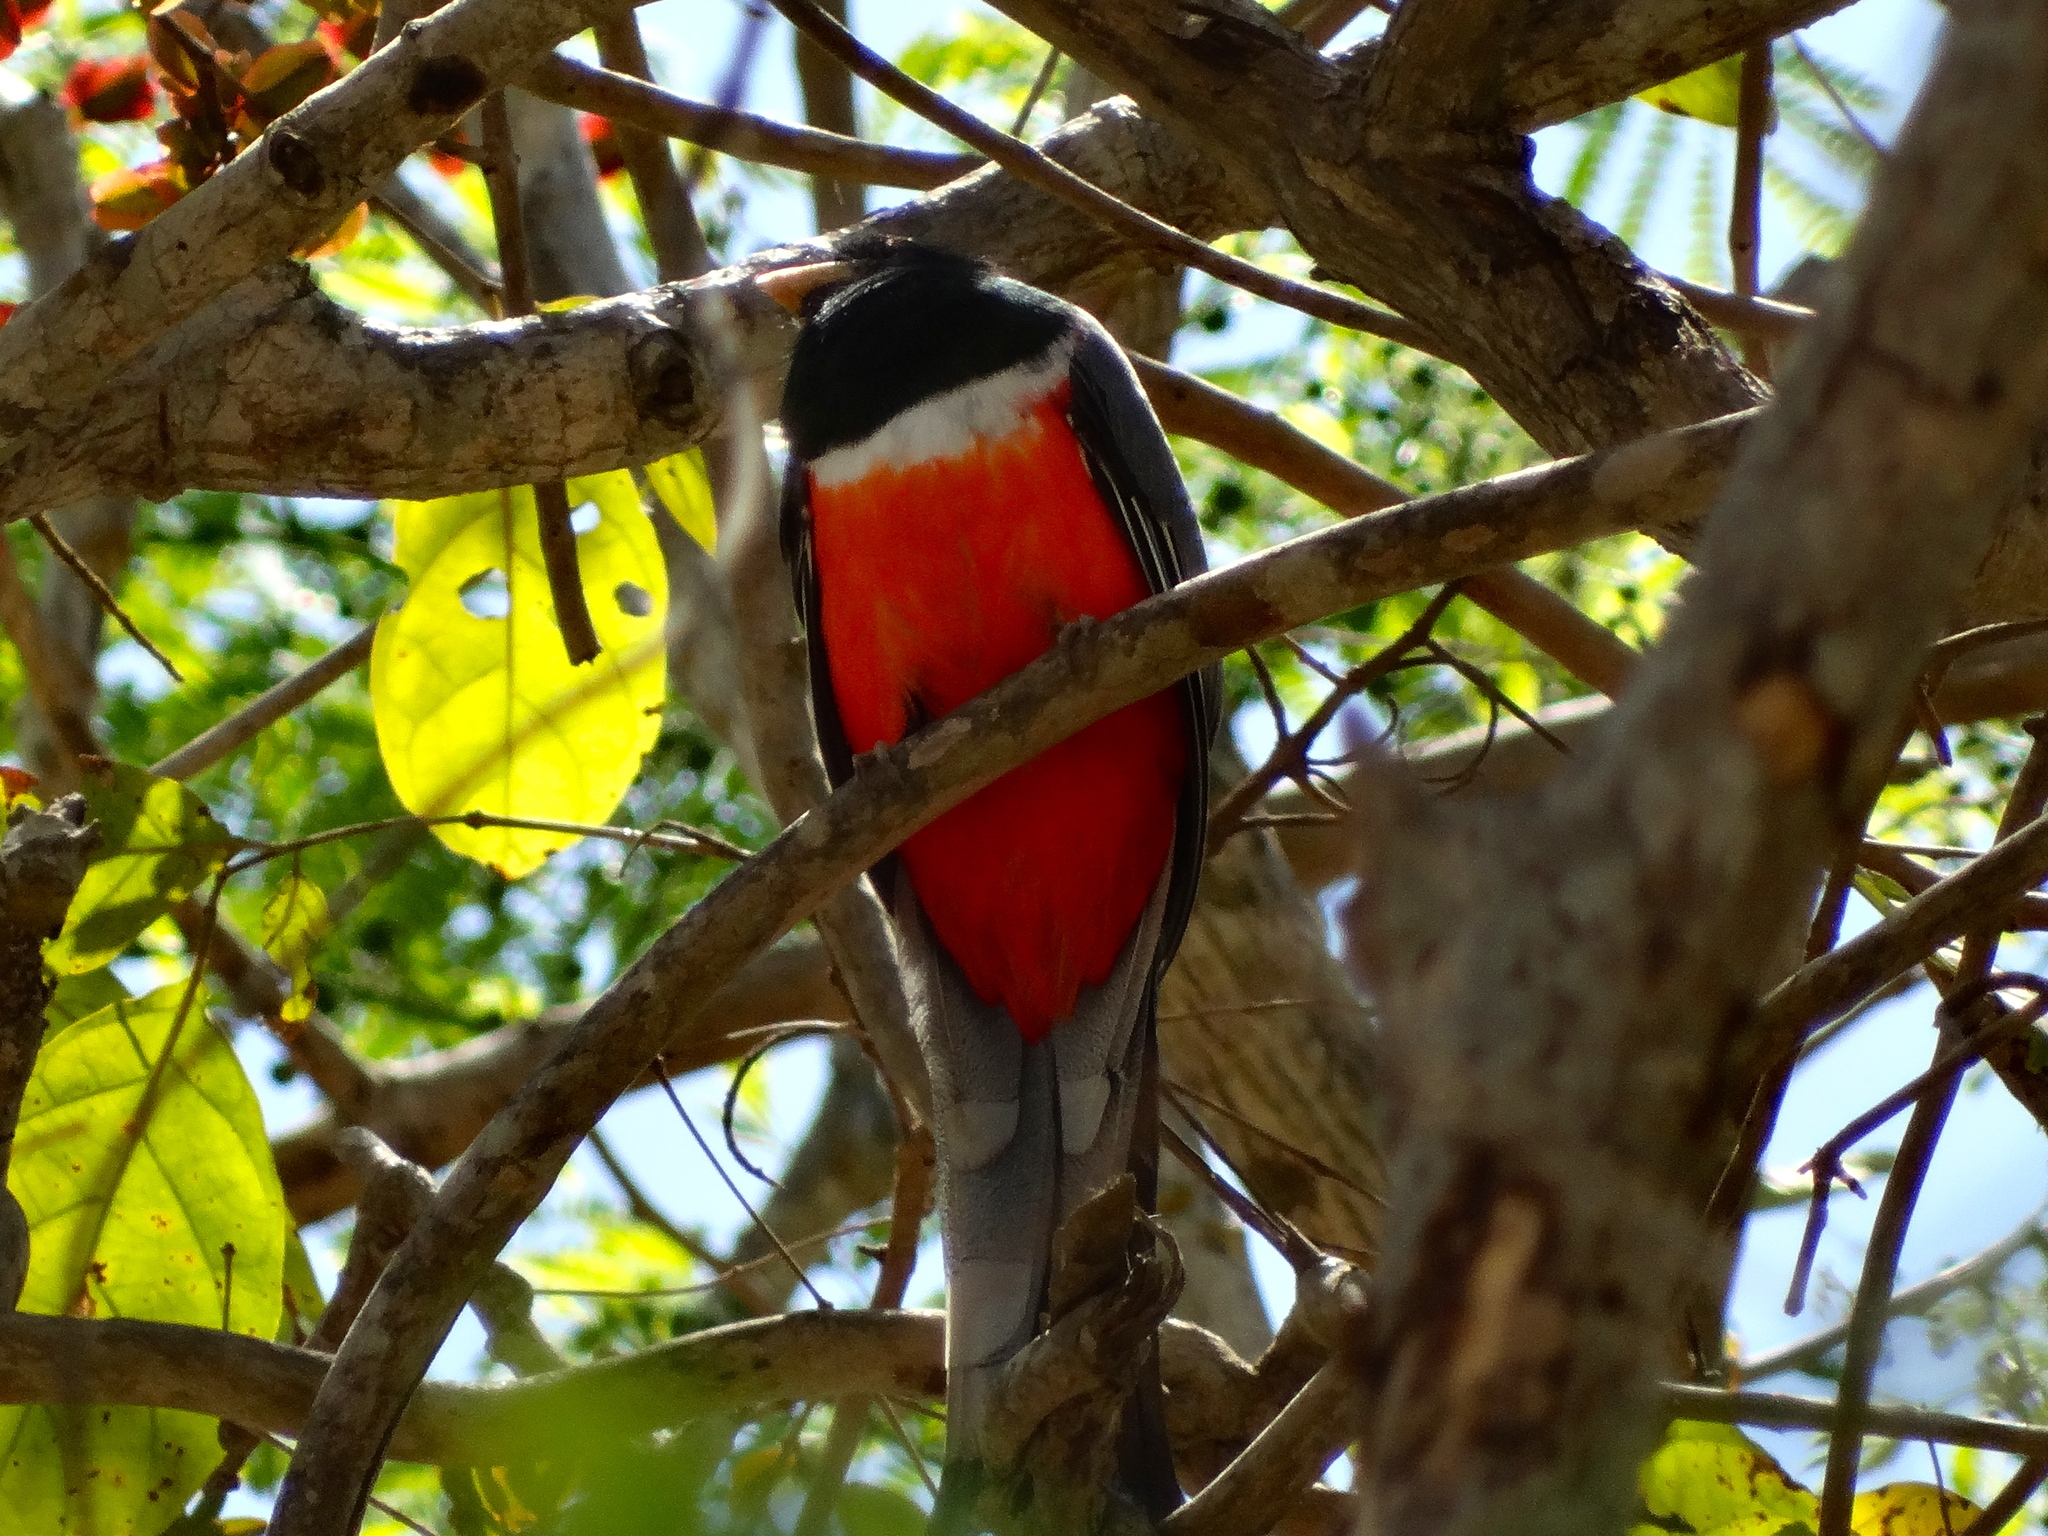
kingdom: Animalia
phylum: Chordata
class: Aves
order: Trogoniformes
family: Trogonidae
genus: Trogon
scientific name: Trogon elegans
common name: Elegant trogon
